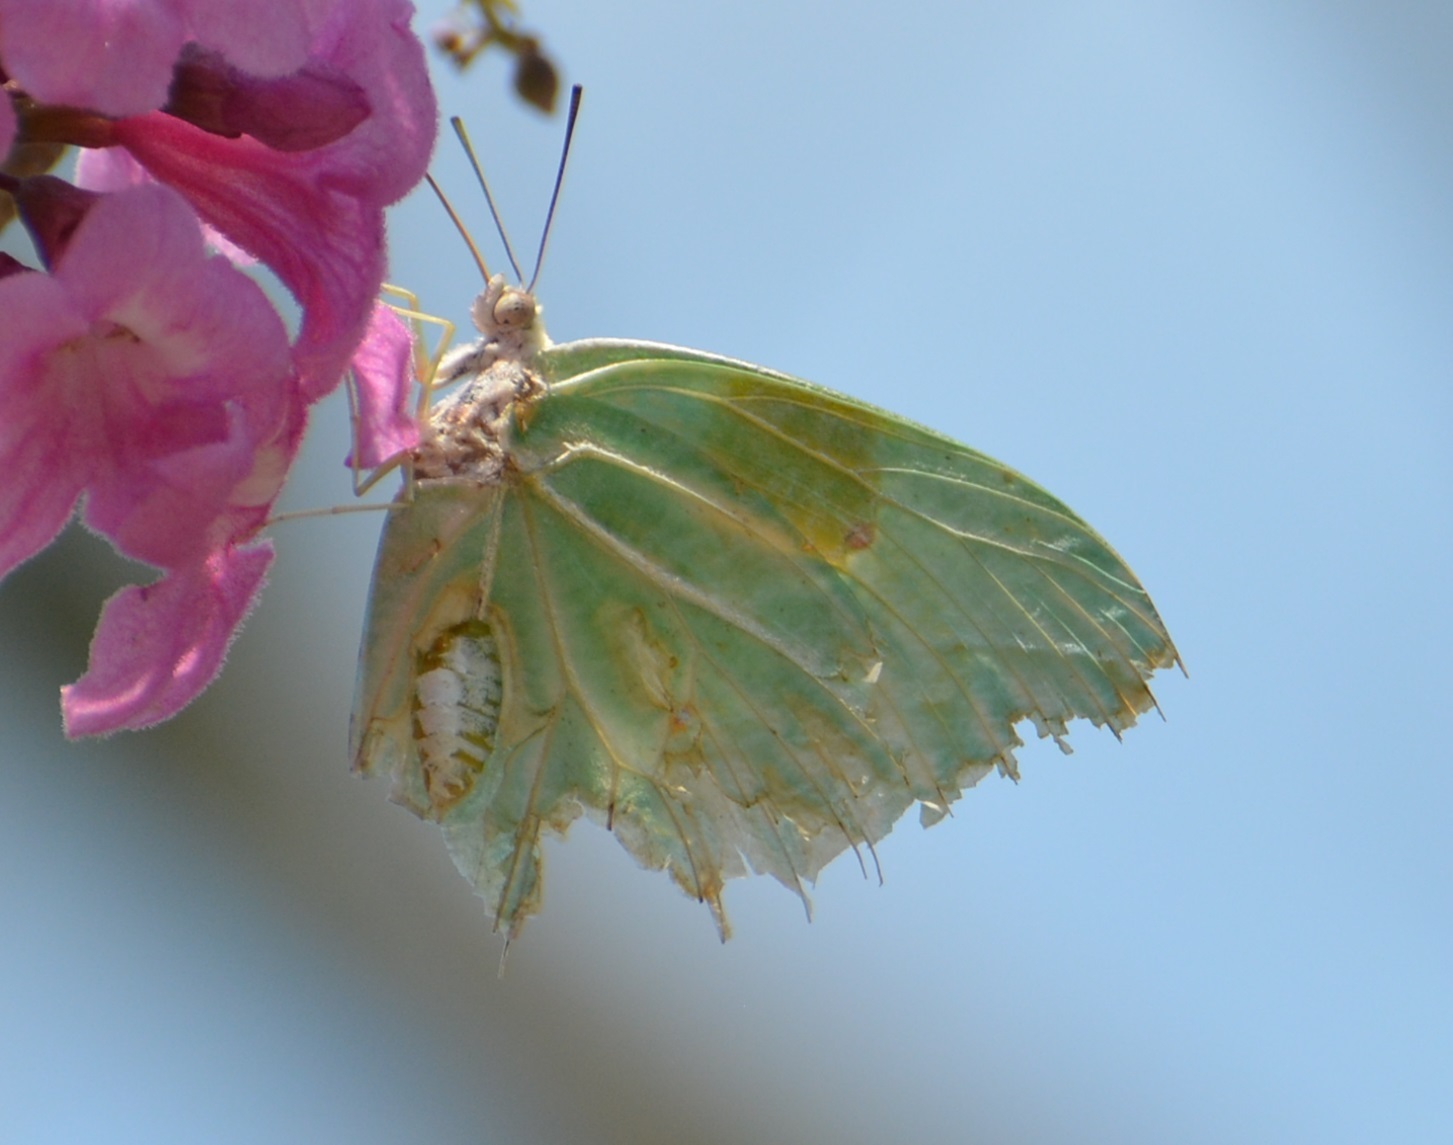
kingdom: Animalia
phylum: Arthropoda
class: Insecta
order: Lepidoptera
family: Pieridae
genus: Anteos
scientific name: Anteos clorinde
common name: White angled sulphur
